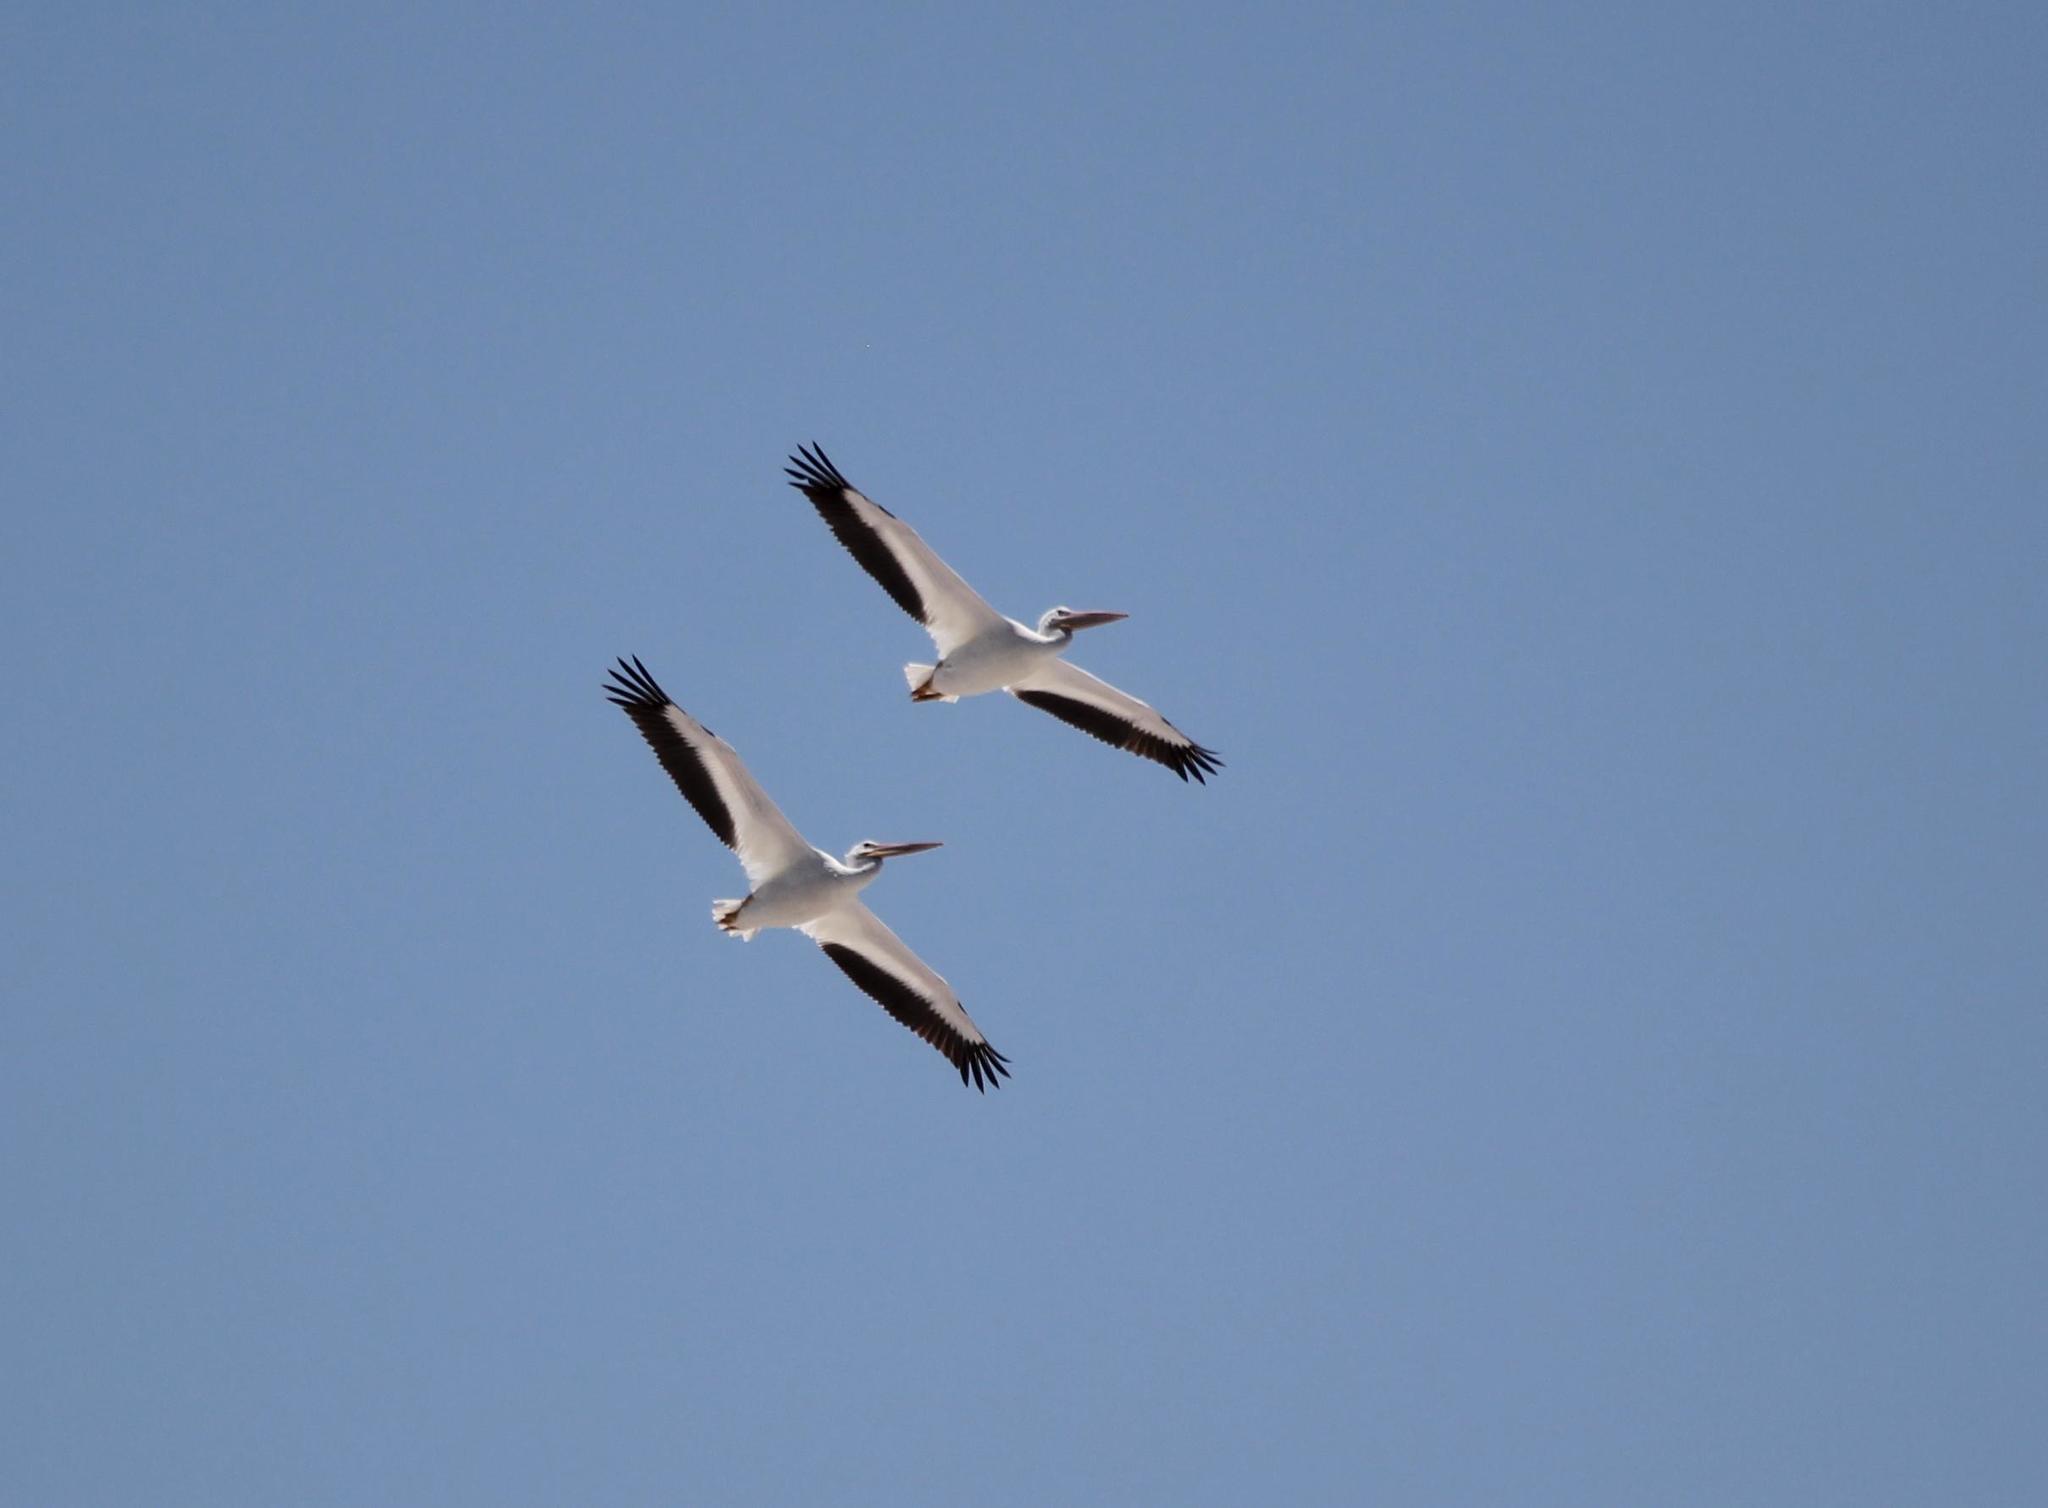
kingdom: Animalia
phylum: Chordata
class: Aves
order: Pelecaniformes
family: Pelecanidae
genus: Pelecanus
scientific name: Pelecanus erythrorhynchos
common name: American white pelican
